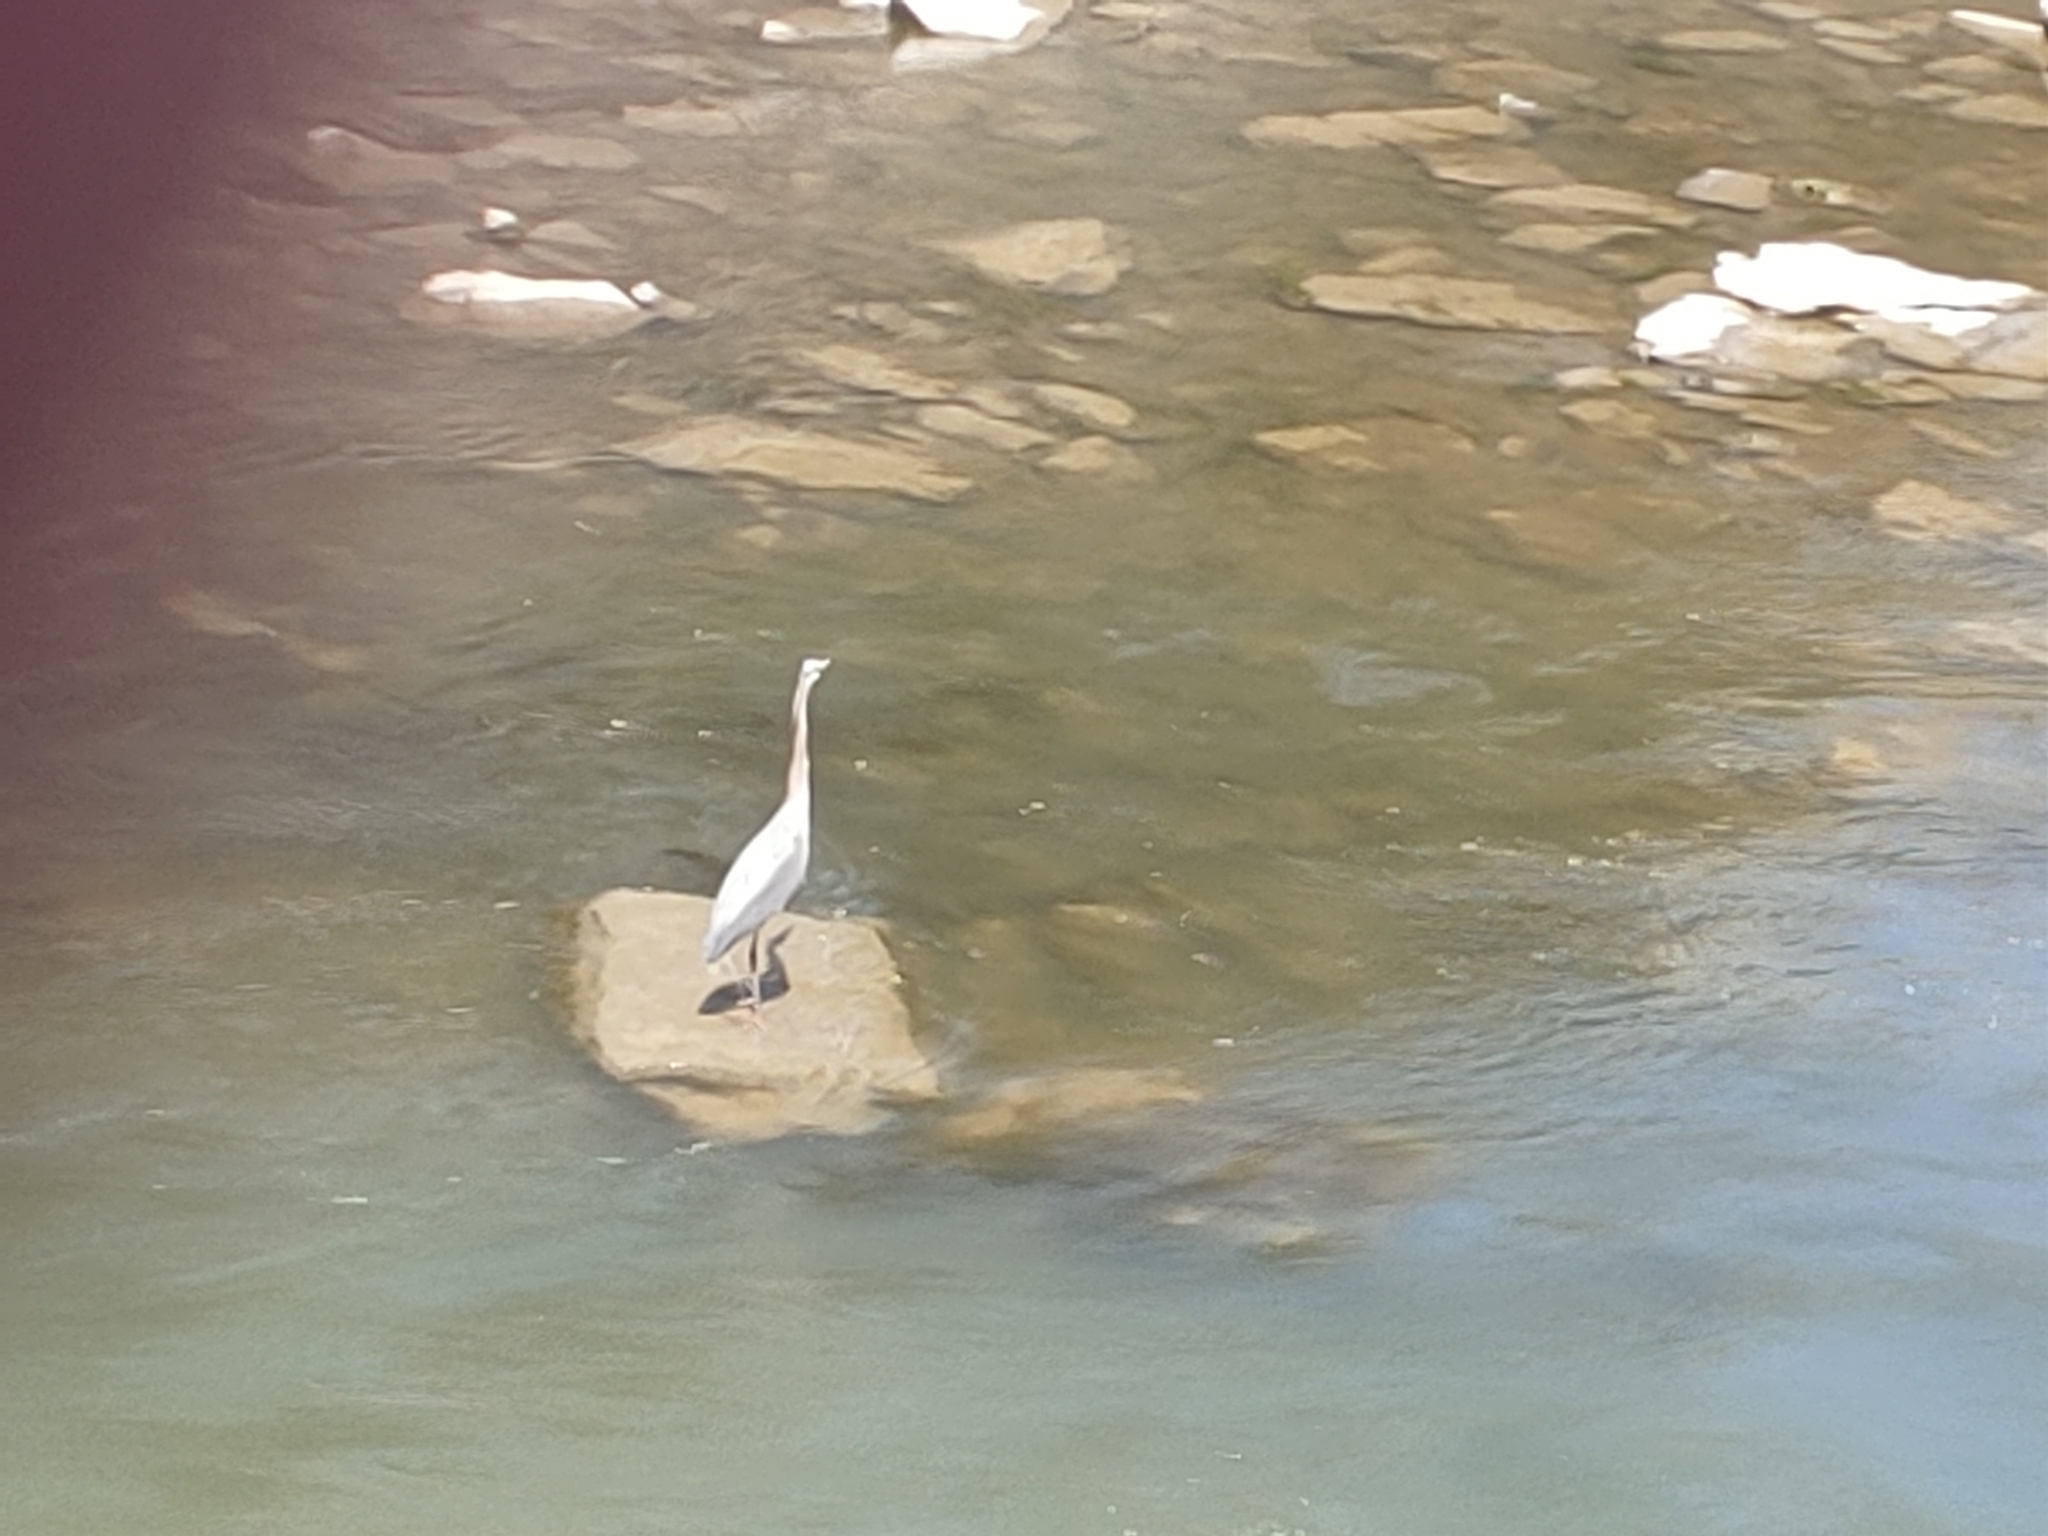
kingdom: Animalia
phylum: Chordata
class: Aves
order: Pelecaniformes
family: Ardeidae
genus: Ardea
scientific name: Ardea herodias
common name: Great blue heron
